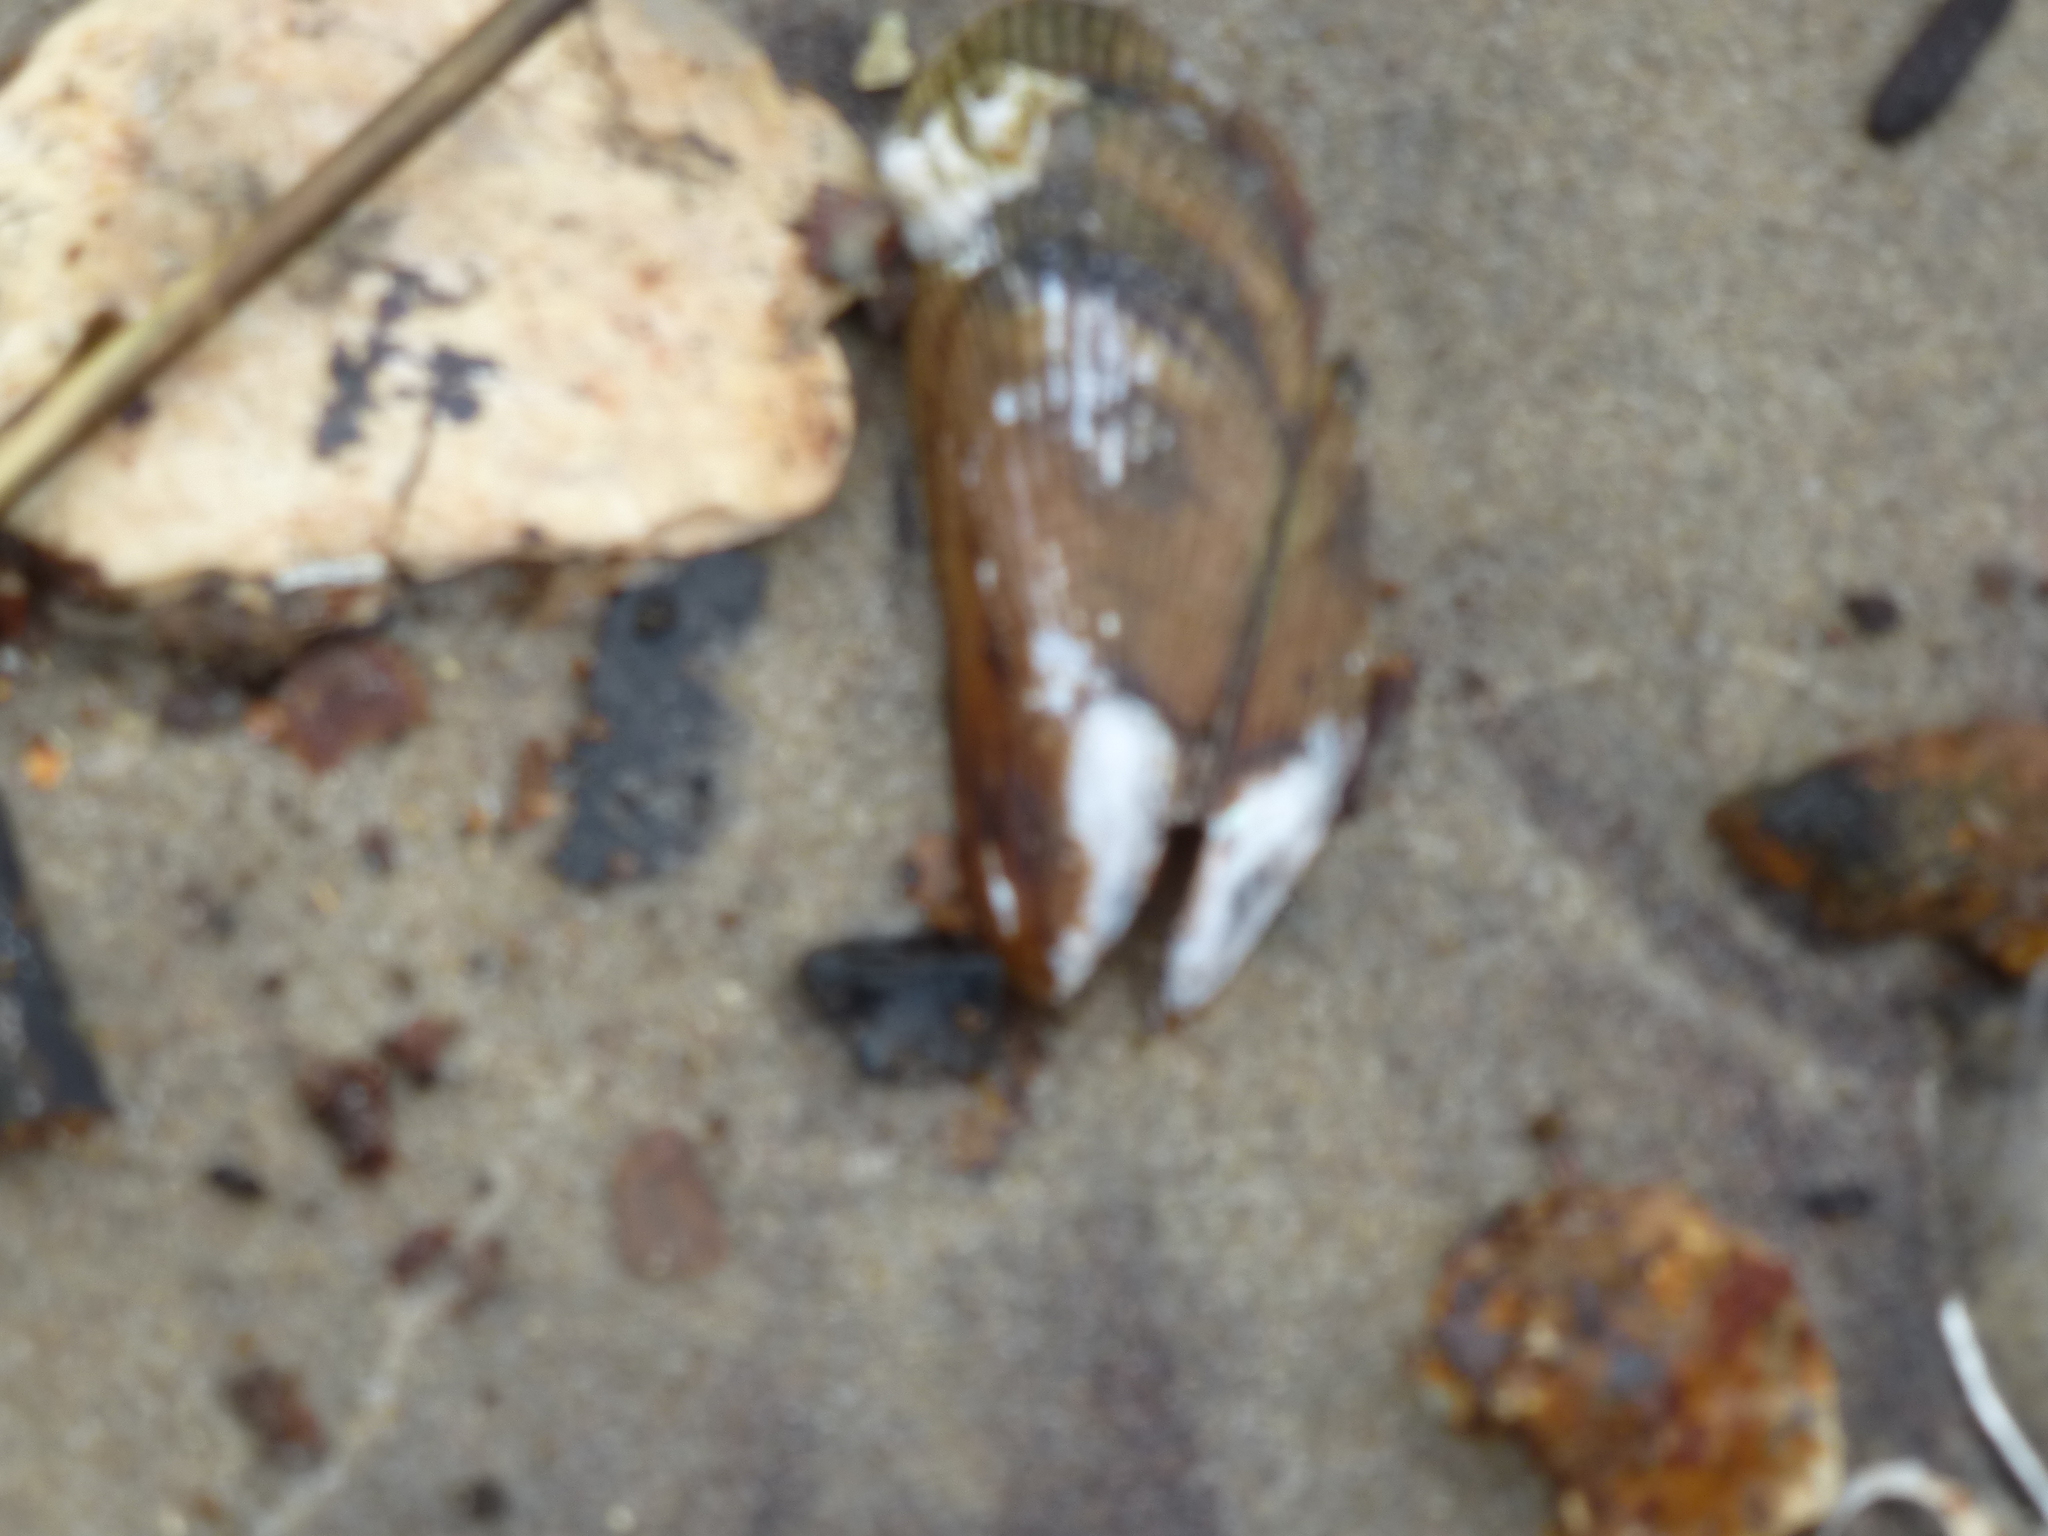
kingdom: Animalia
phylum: Mollusca
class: Bivalvia
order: Mytilida
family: Mytilidae
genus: Geukensia
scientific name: Geukensia demissa
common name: Ribbed mussel
